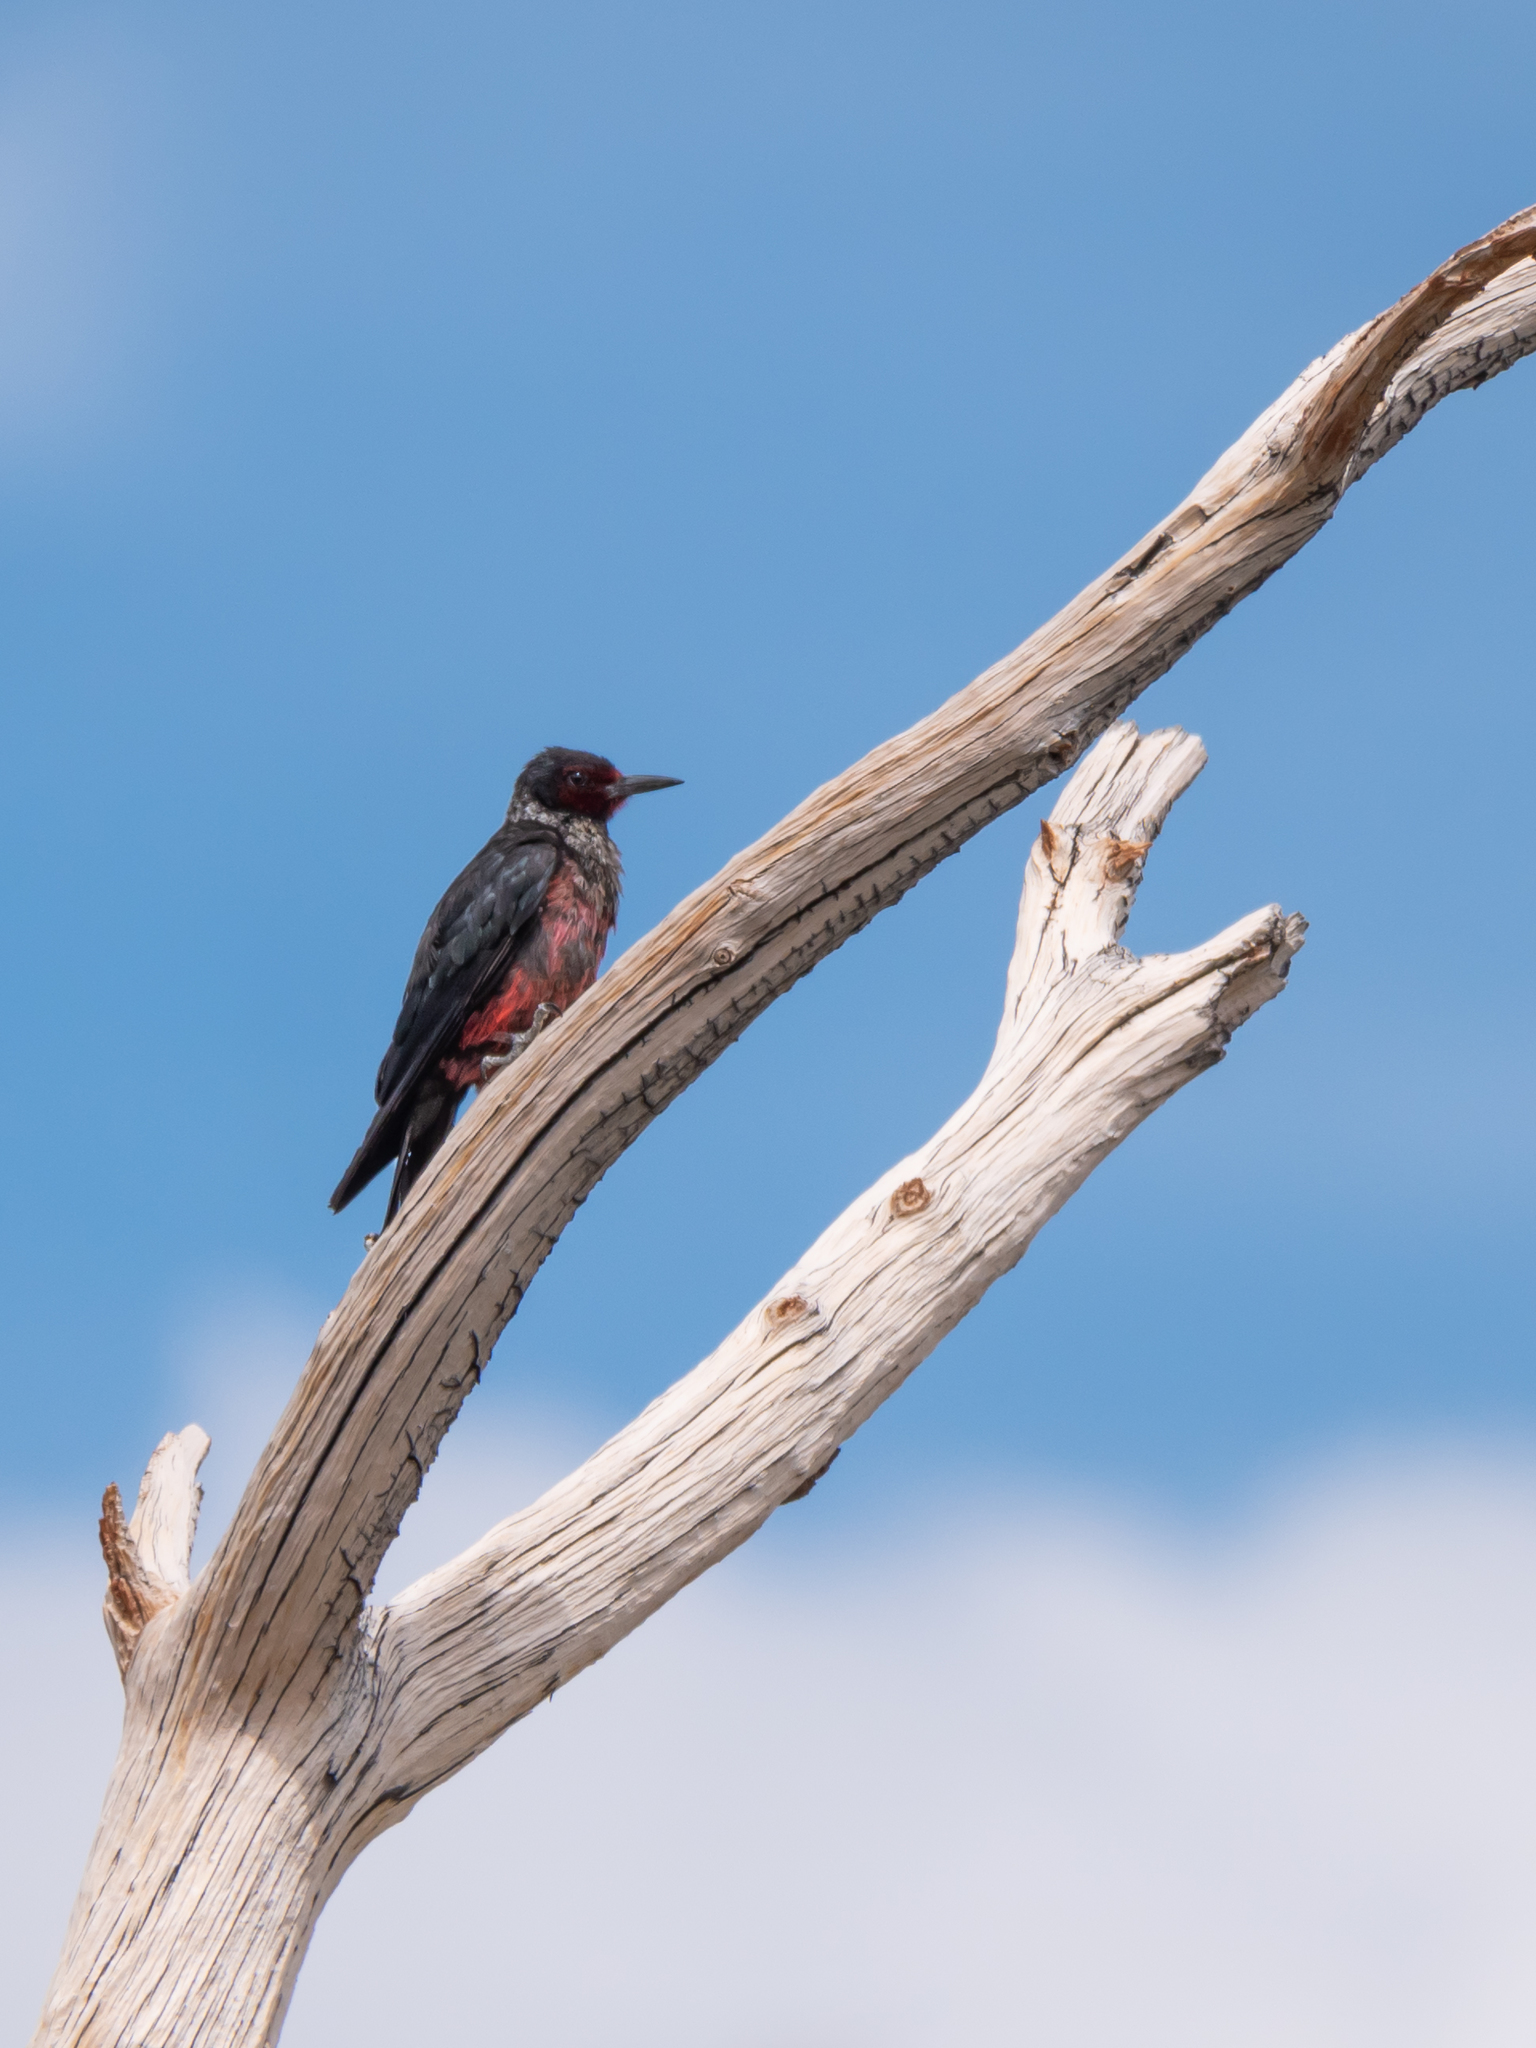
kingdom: Animalia
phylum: Chordata
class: Aves
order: Piciformes
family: Picidae
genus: Melanerpes
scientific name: Melanerpes lewis
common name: Lewis's woodpecker
